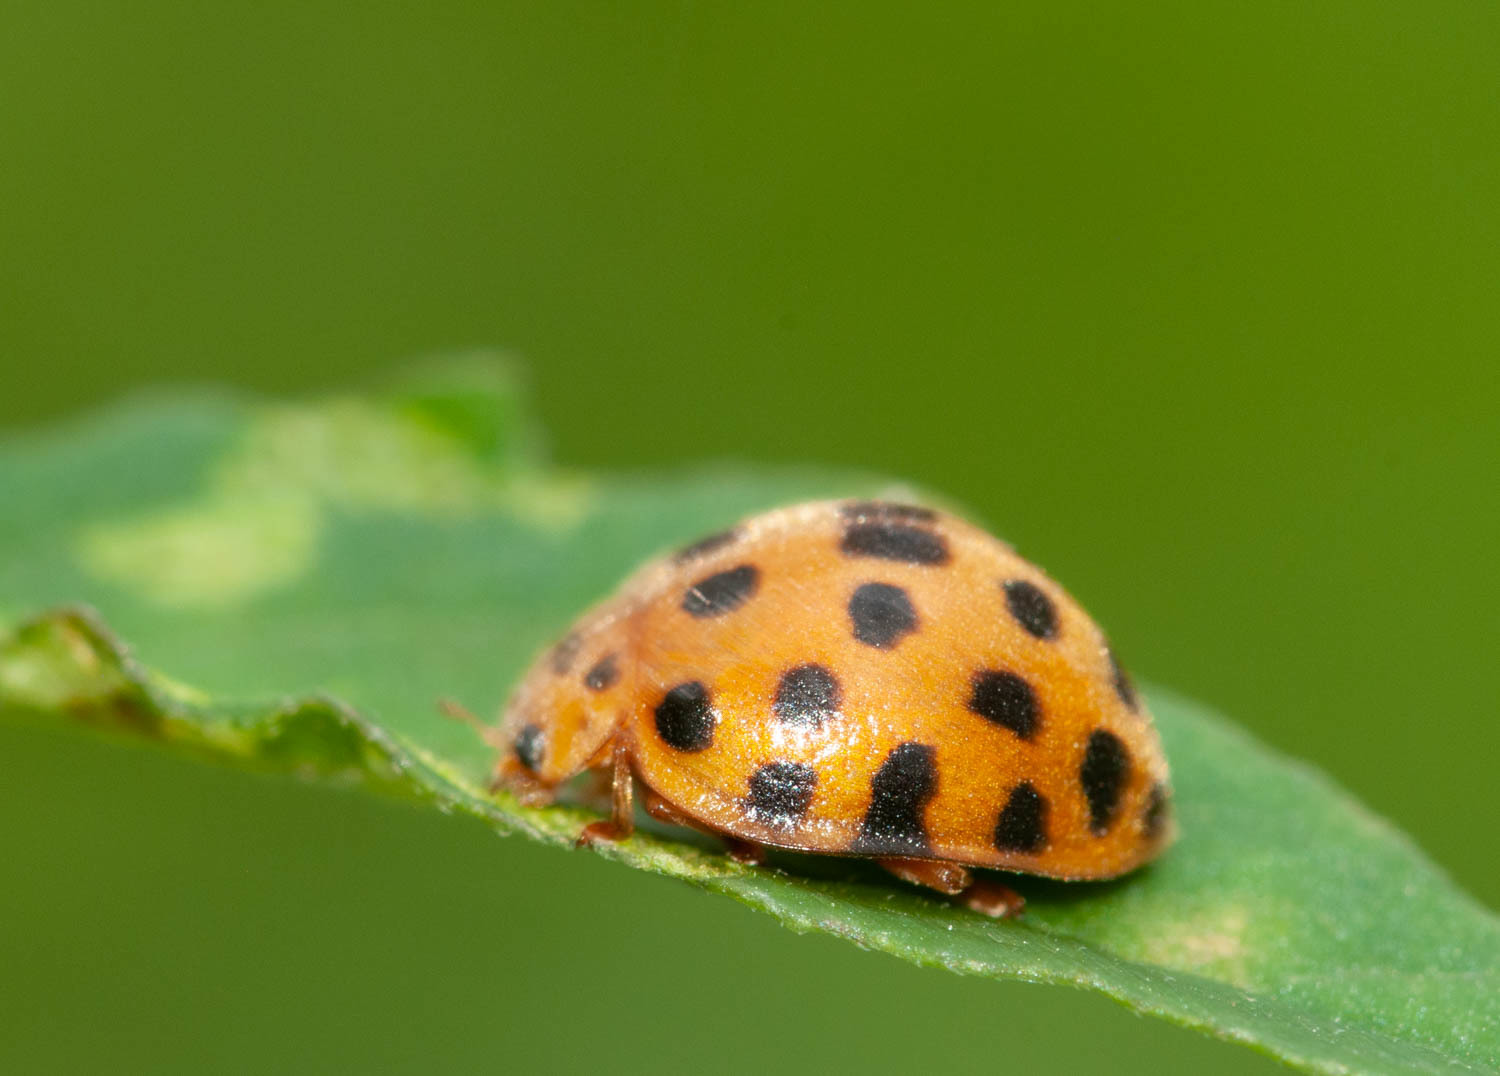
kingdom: Animalia
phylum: Arthropoda
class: Insecta
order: Coleoptera
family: Coccinellidae
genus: Henosepilachna
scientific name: Henosepilachna vigintioctopunctata
